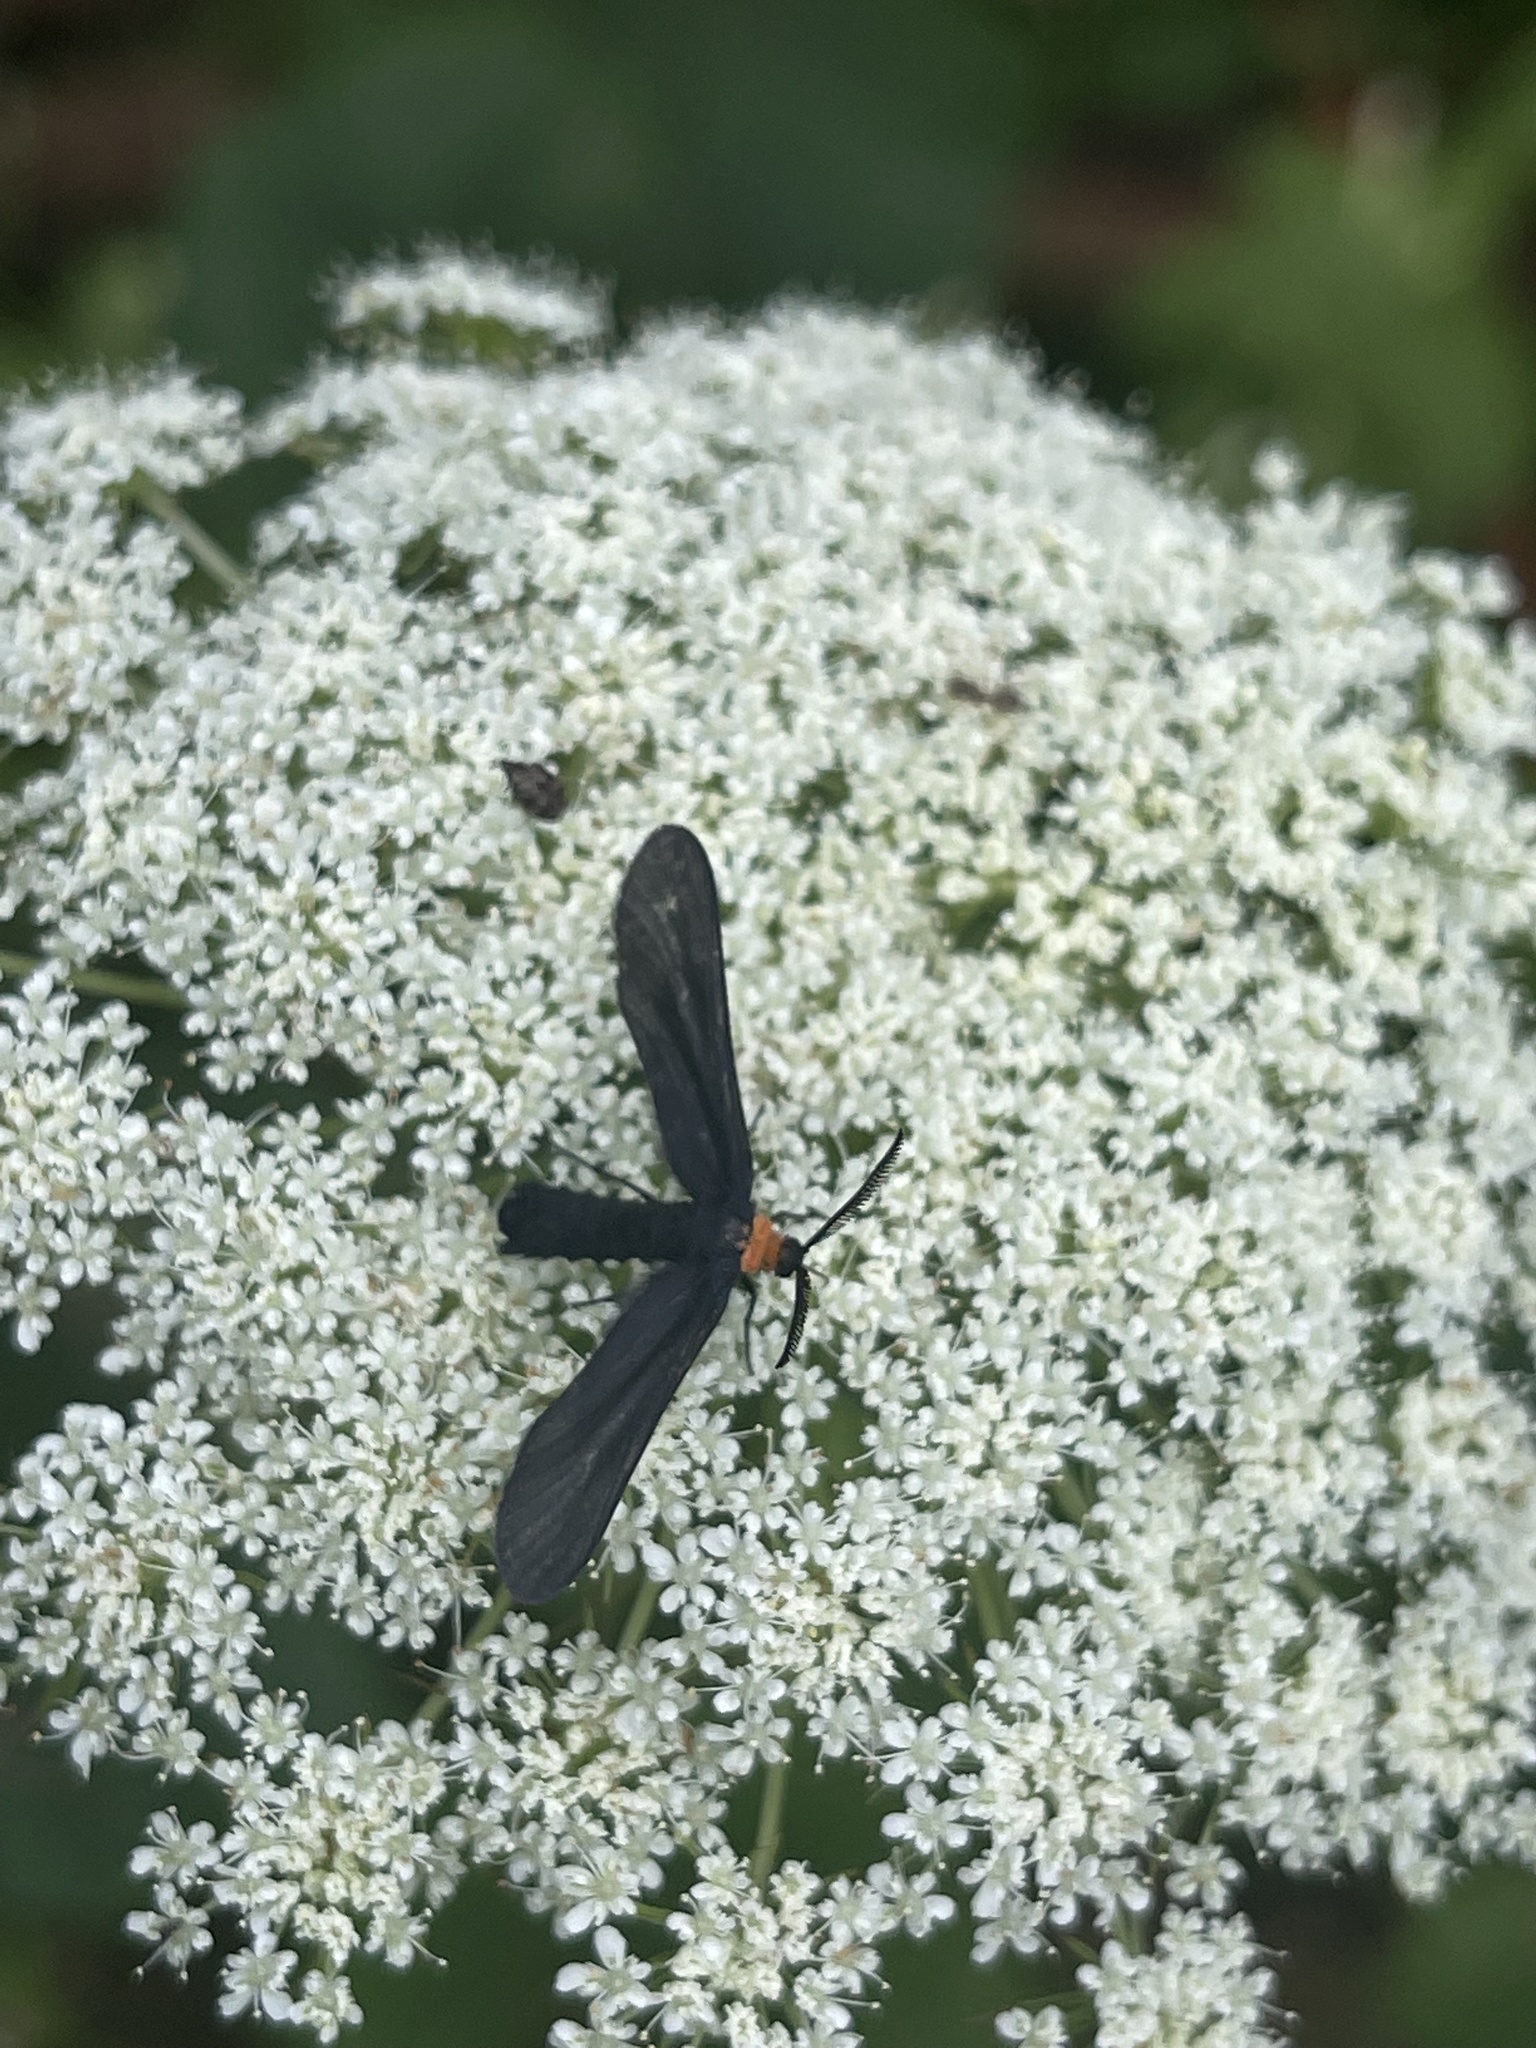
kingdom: Animalia
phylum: Arthropoda
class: Insecta
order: Lepidoptera
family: Zygaenidae
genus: Harrisina
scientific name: Harrisina americana
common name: Grapeleaf skeletonizer moth
